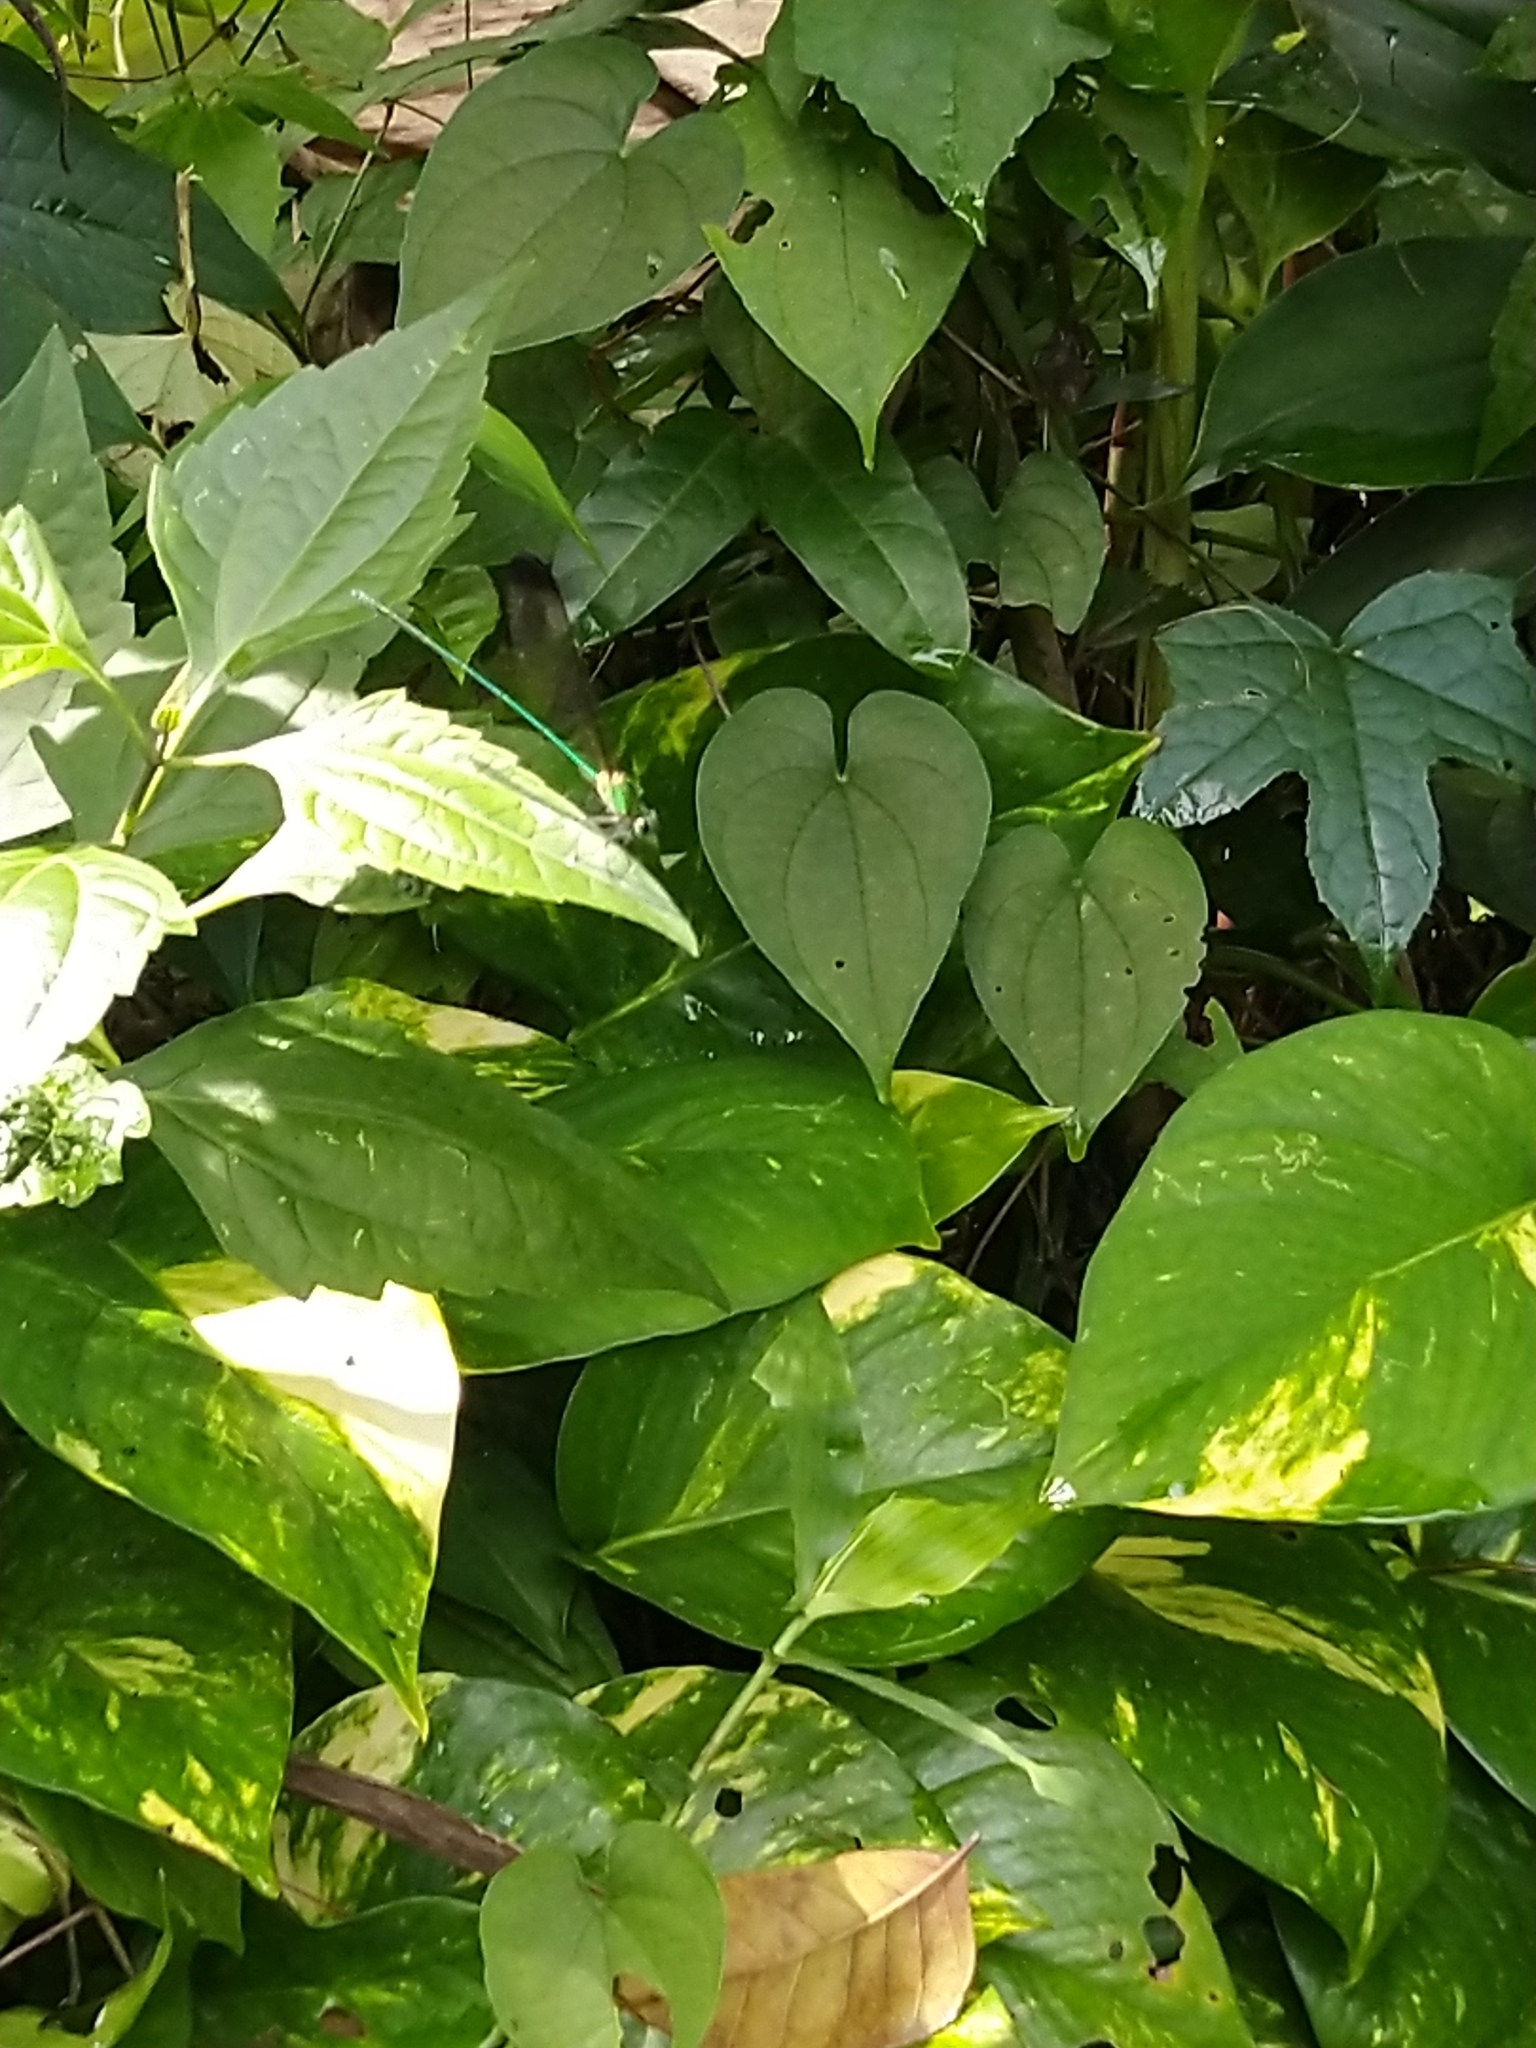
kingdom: Animalia
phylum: Arthropoda
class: Insecta
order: Odonata
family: Calopterygidae
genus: Vestalis
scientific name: Vestalis apicalis
